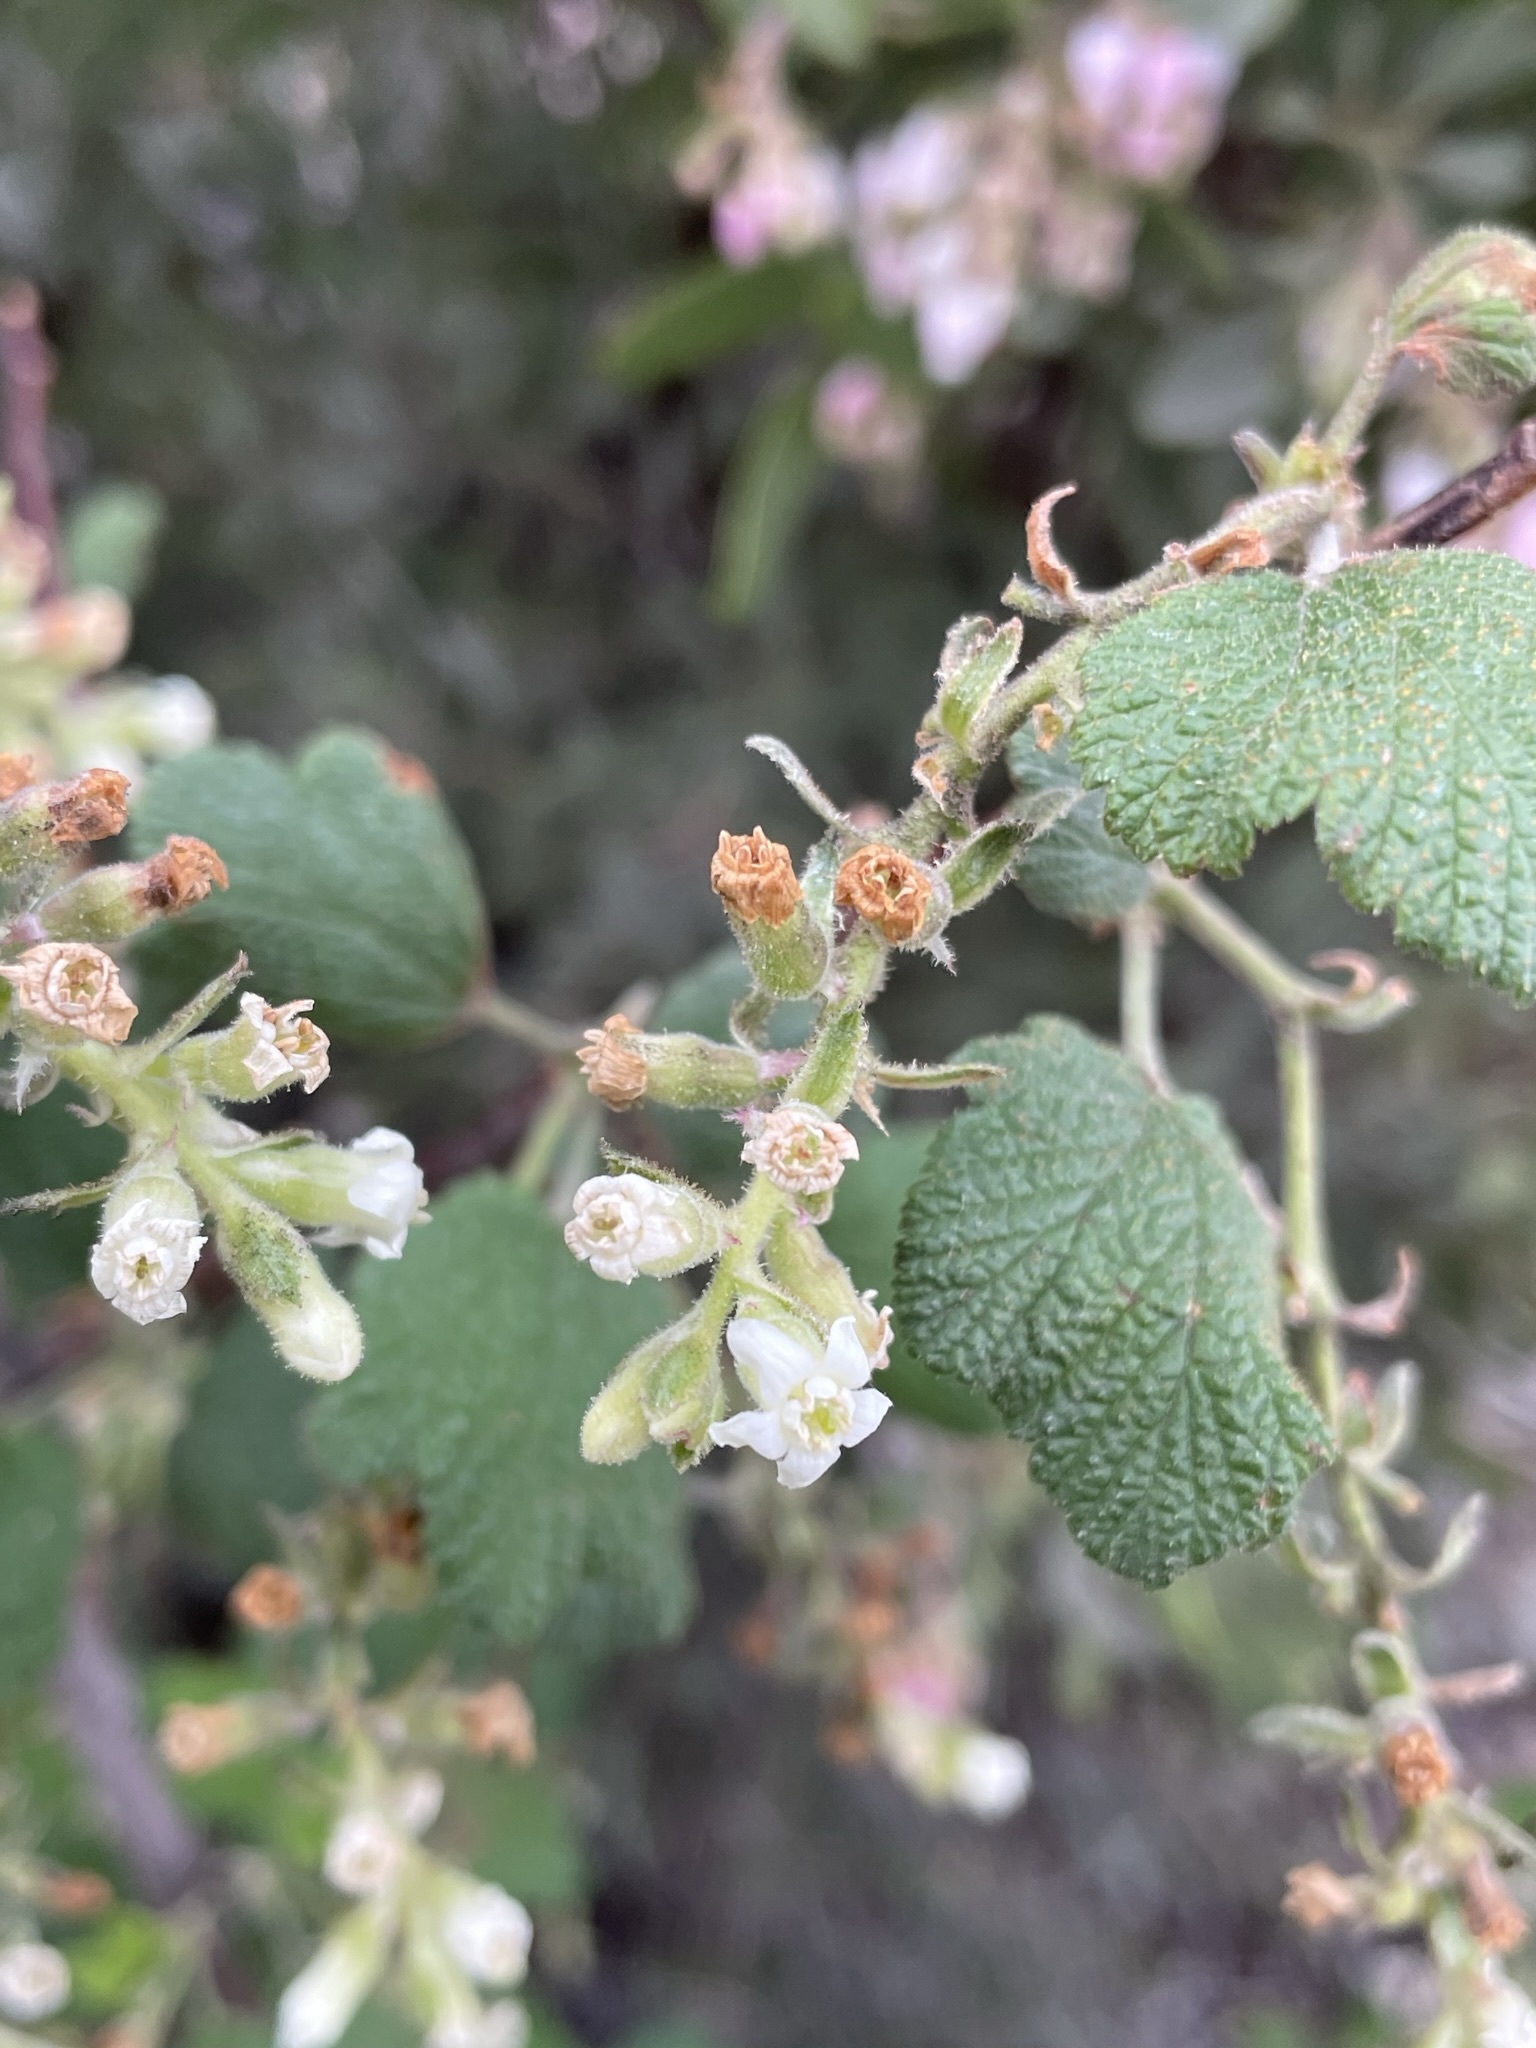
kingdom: Plantae
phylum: Tracheophyta
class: Magnoliopsida
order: Saxifragales
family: Grossulariaceae
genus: Ribes
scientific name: Ribes indecorum
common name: White-flower currant
